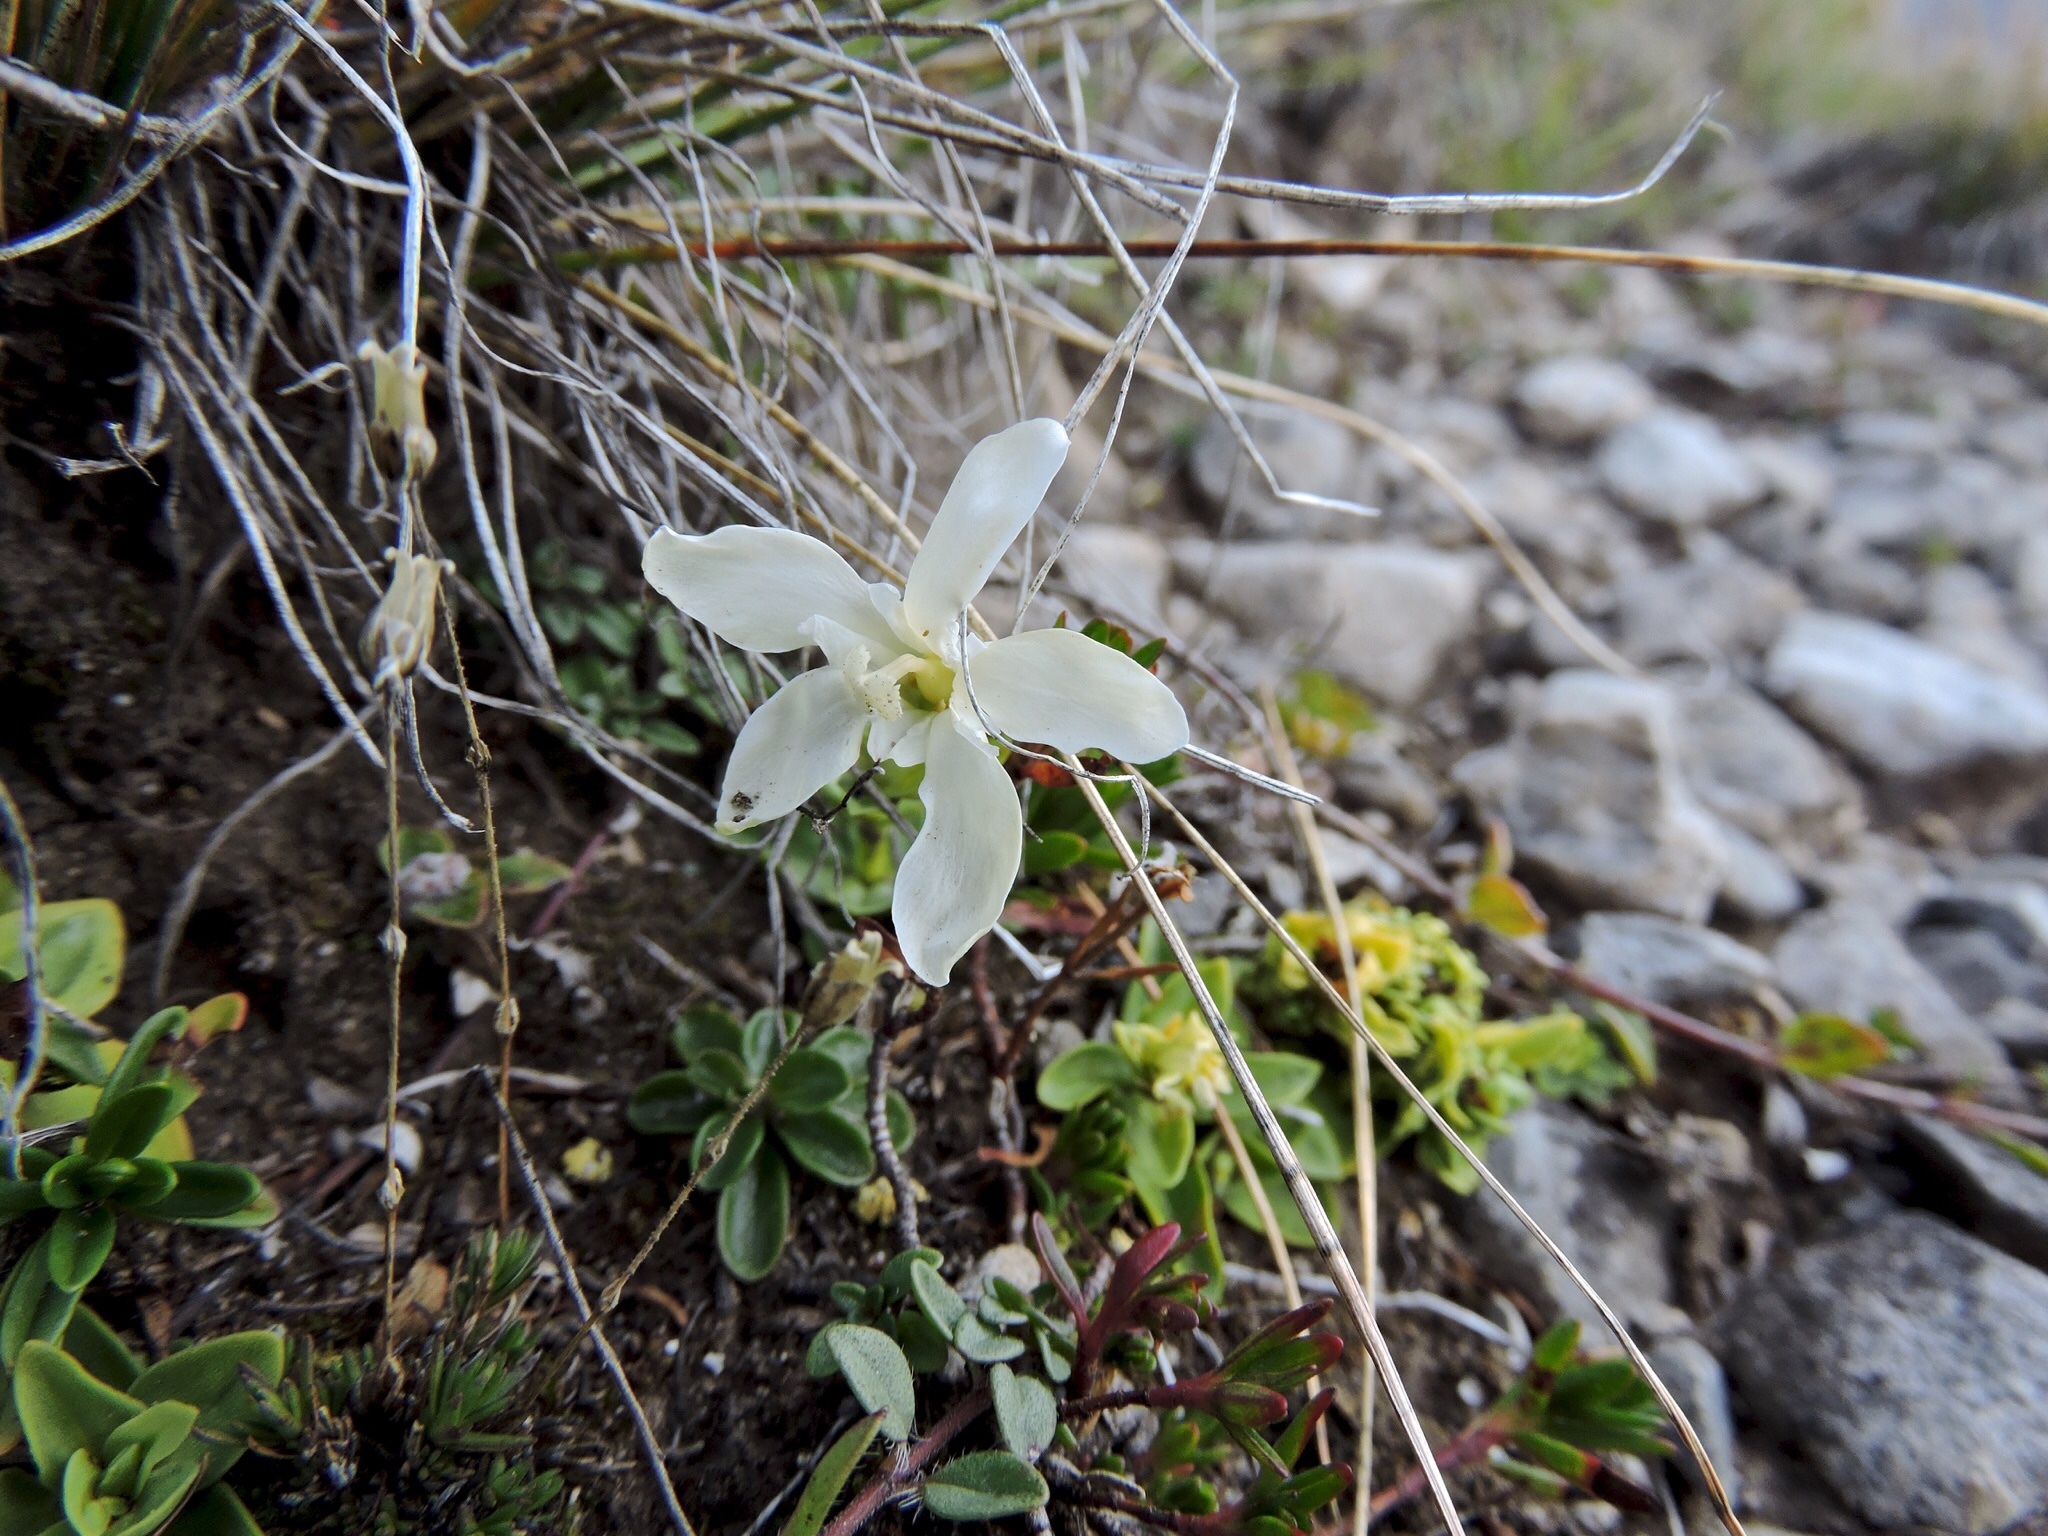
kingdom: Plantae
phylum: Tracheophyta
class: Magnoliopsida
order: Gentianales
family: Gentianaceae
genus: Gentiana
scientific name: Gentiana verna
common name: Spring gentian
